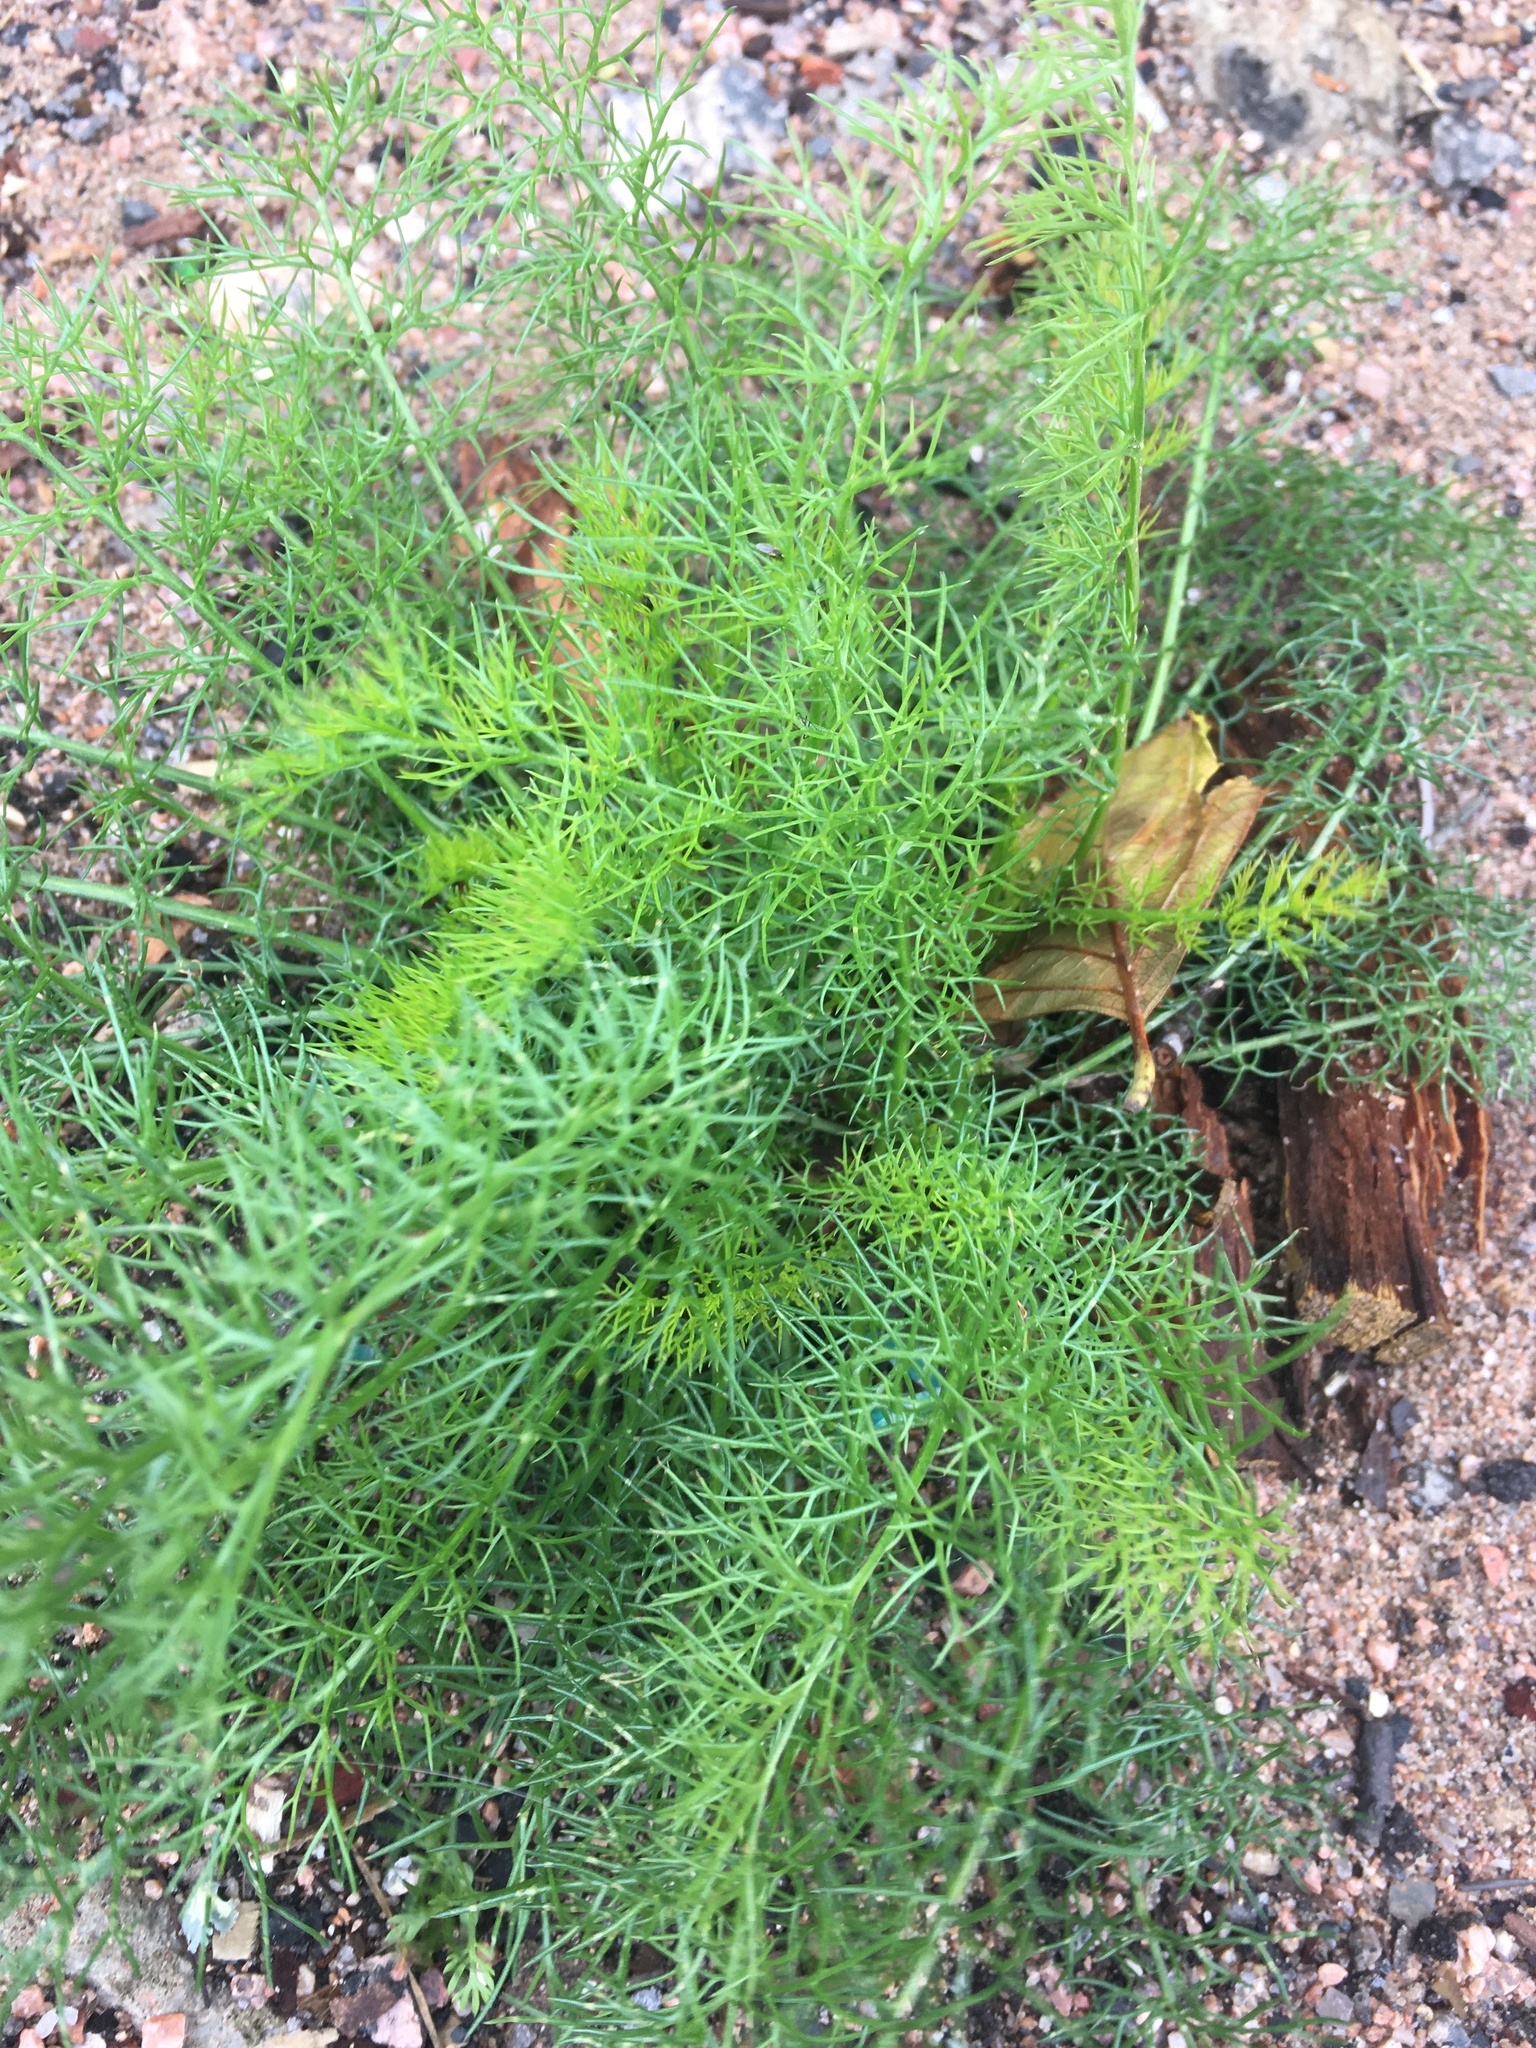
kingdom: Plantae
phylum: Tracheophyta
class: Magnoliopsida
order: Asterales
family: Asteraceae
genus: Tripleurospermum
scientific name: Tripleurospermum inodorum
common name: Scentless mayweed
